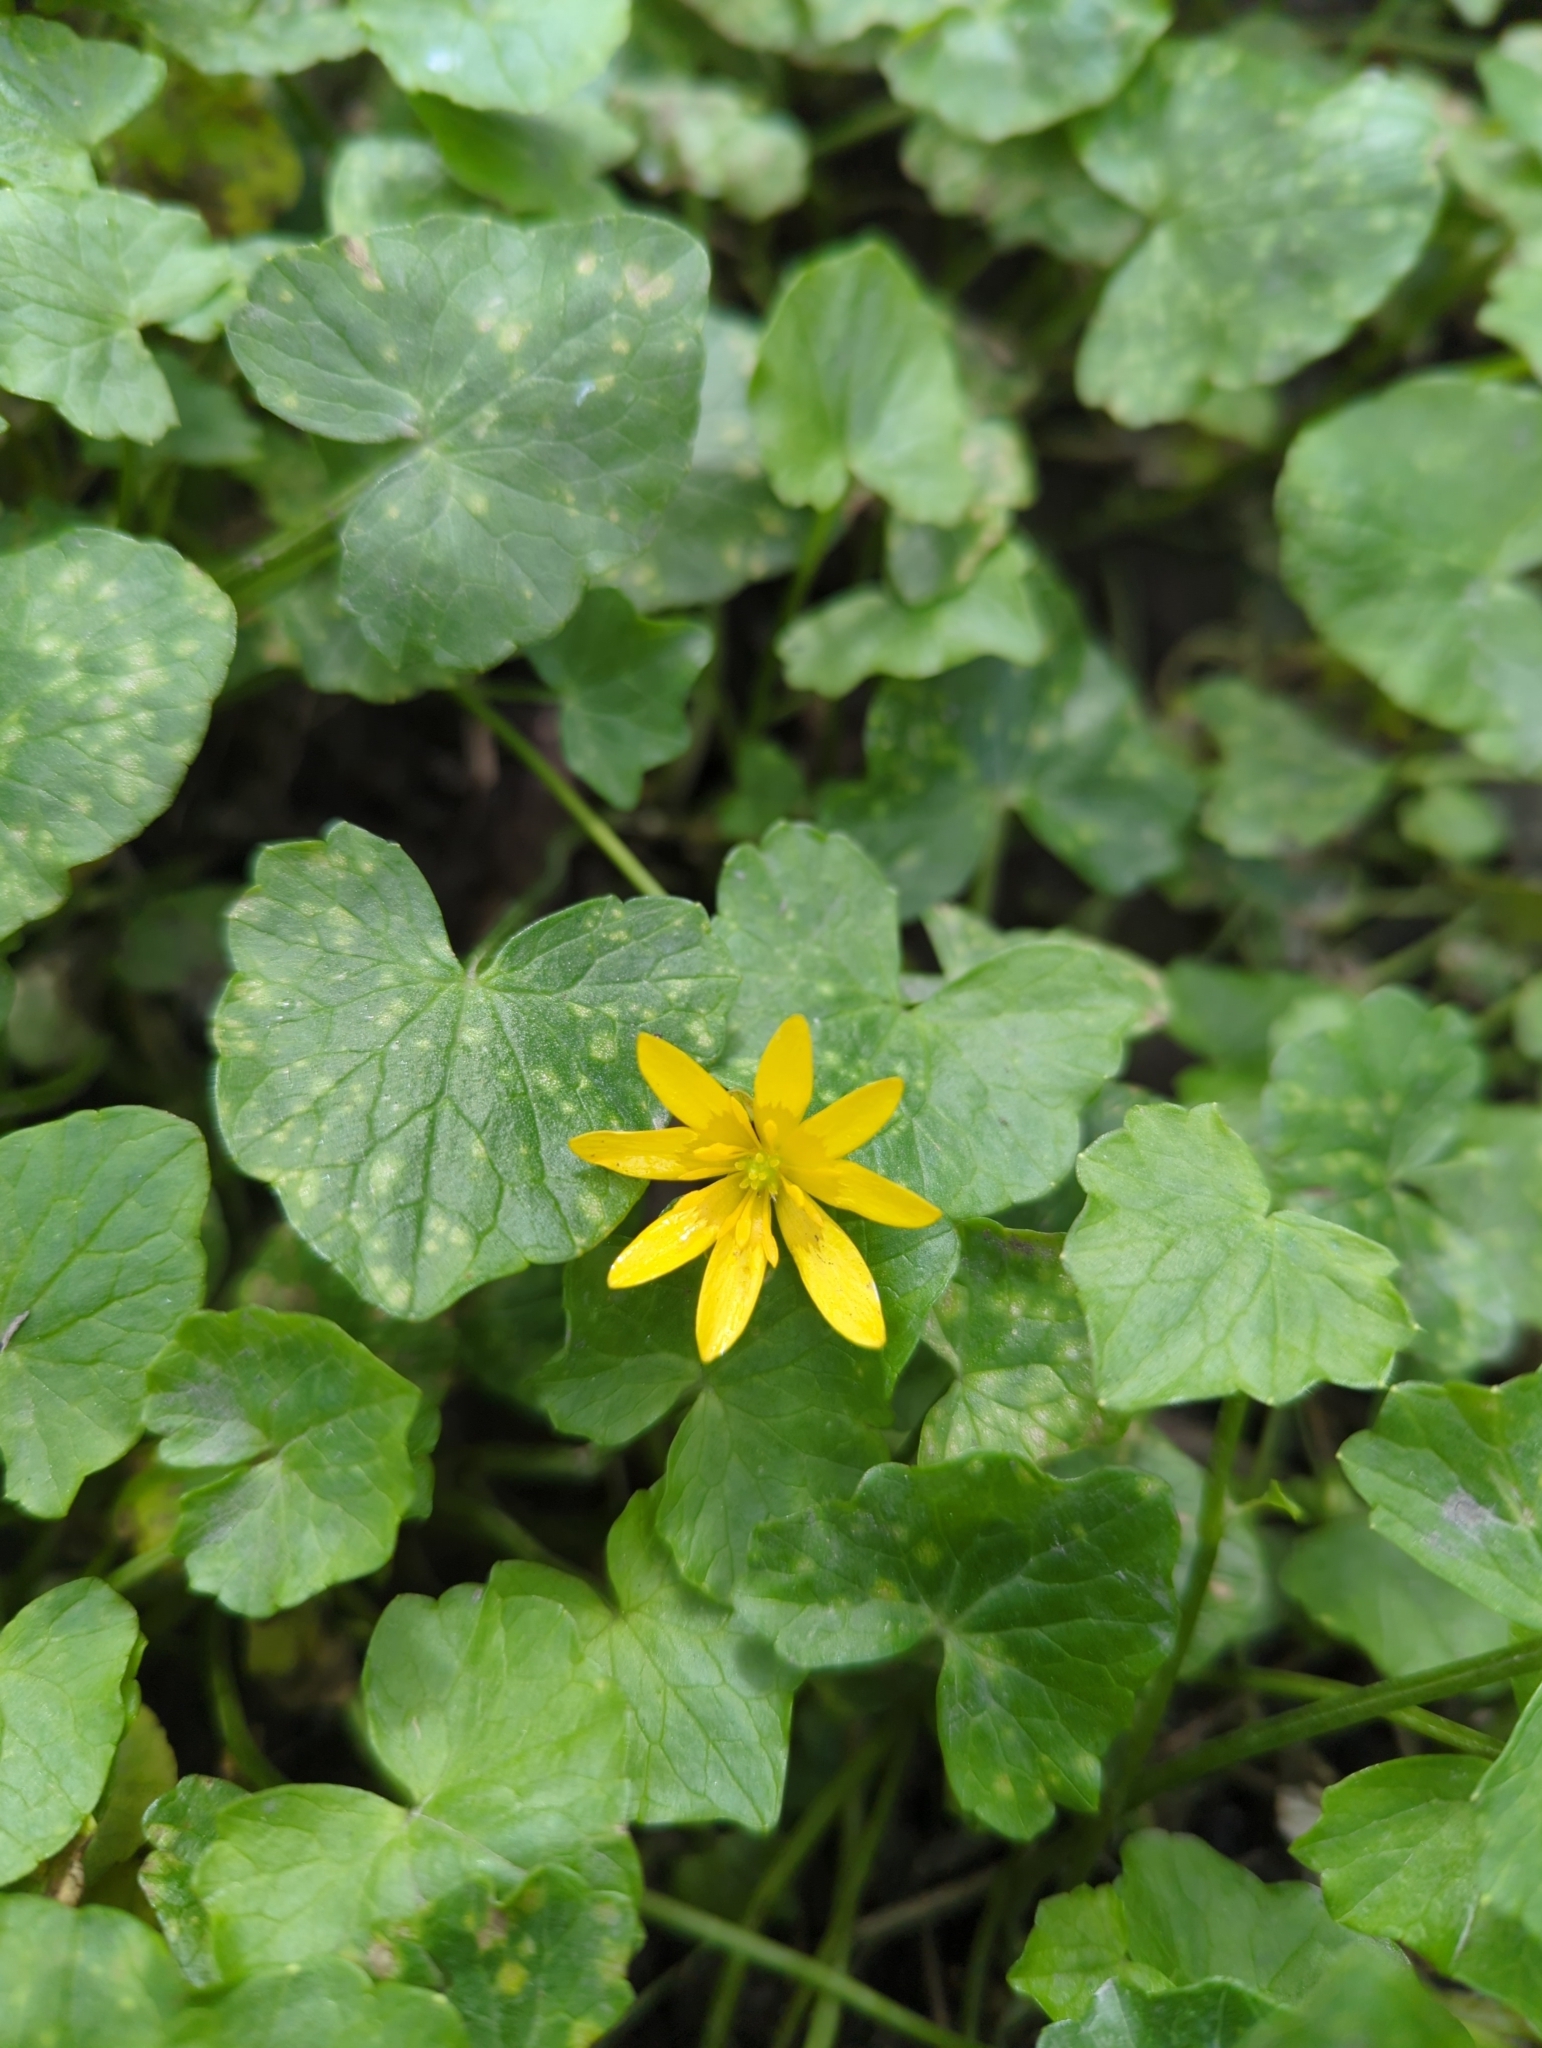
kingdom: Plantae
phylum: Tracheophyta
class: Magnoliopsida
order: Ranunculales
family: Ranunculaceae
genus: Ficaria
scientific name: Ficaria verna
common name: Lesser celandine
